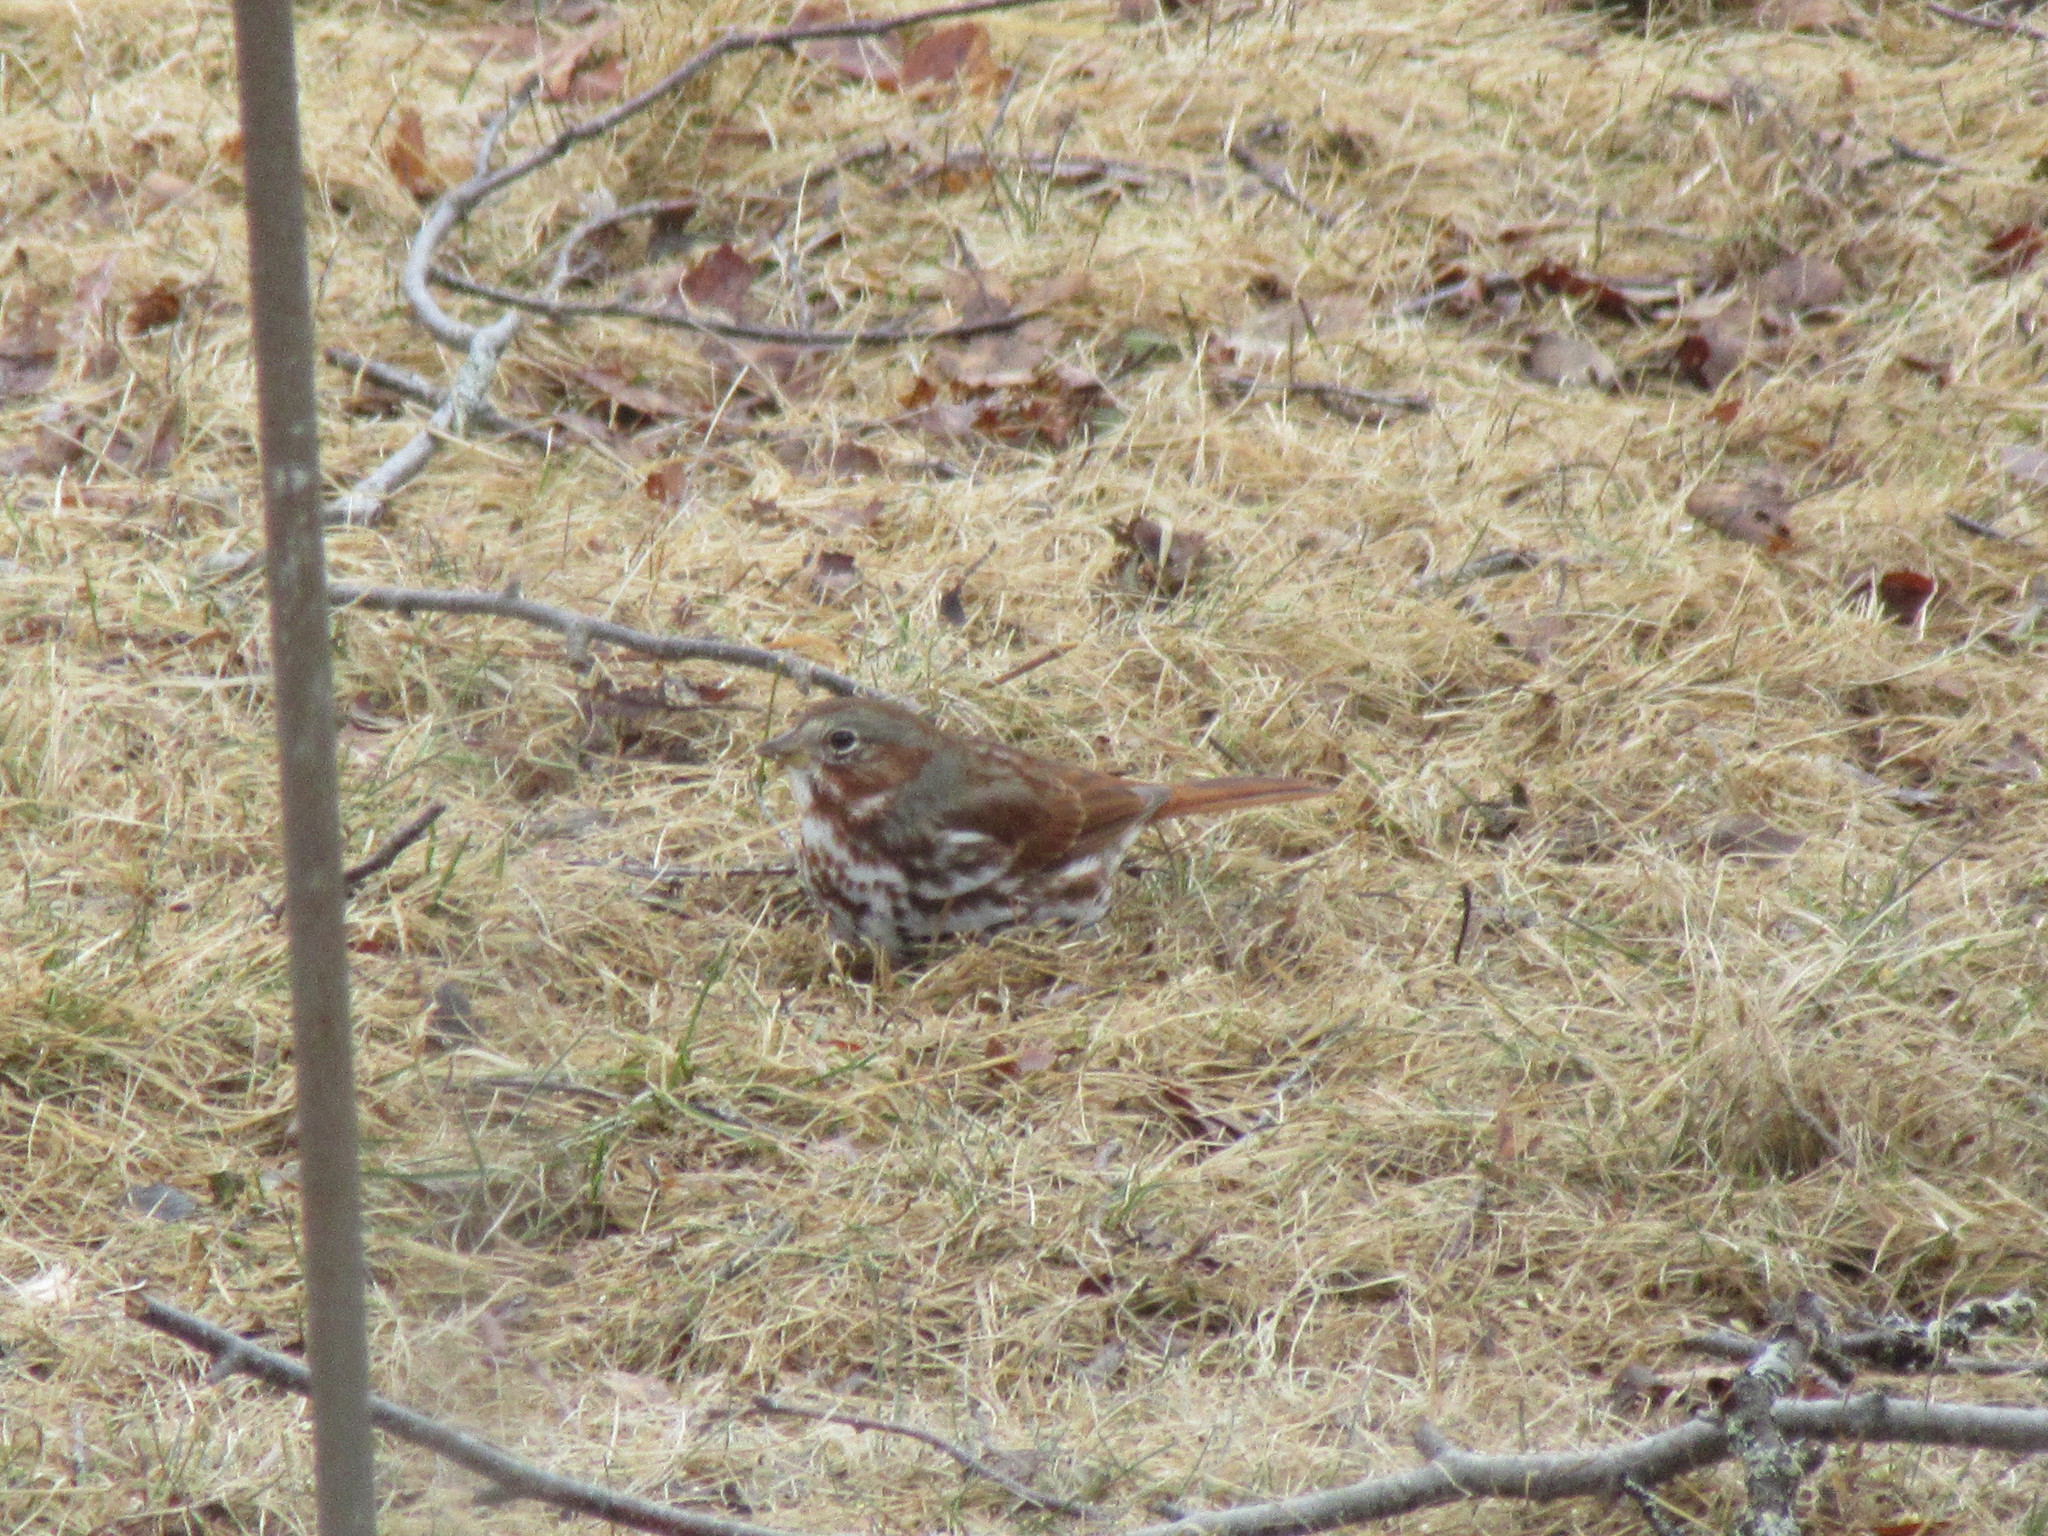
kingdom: Animalia
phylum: Chordata
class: Aves
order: Passeriformes
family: Passerellidae
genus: Passerella
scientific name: Passerella iliaca
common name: Fox sparrow
